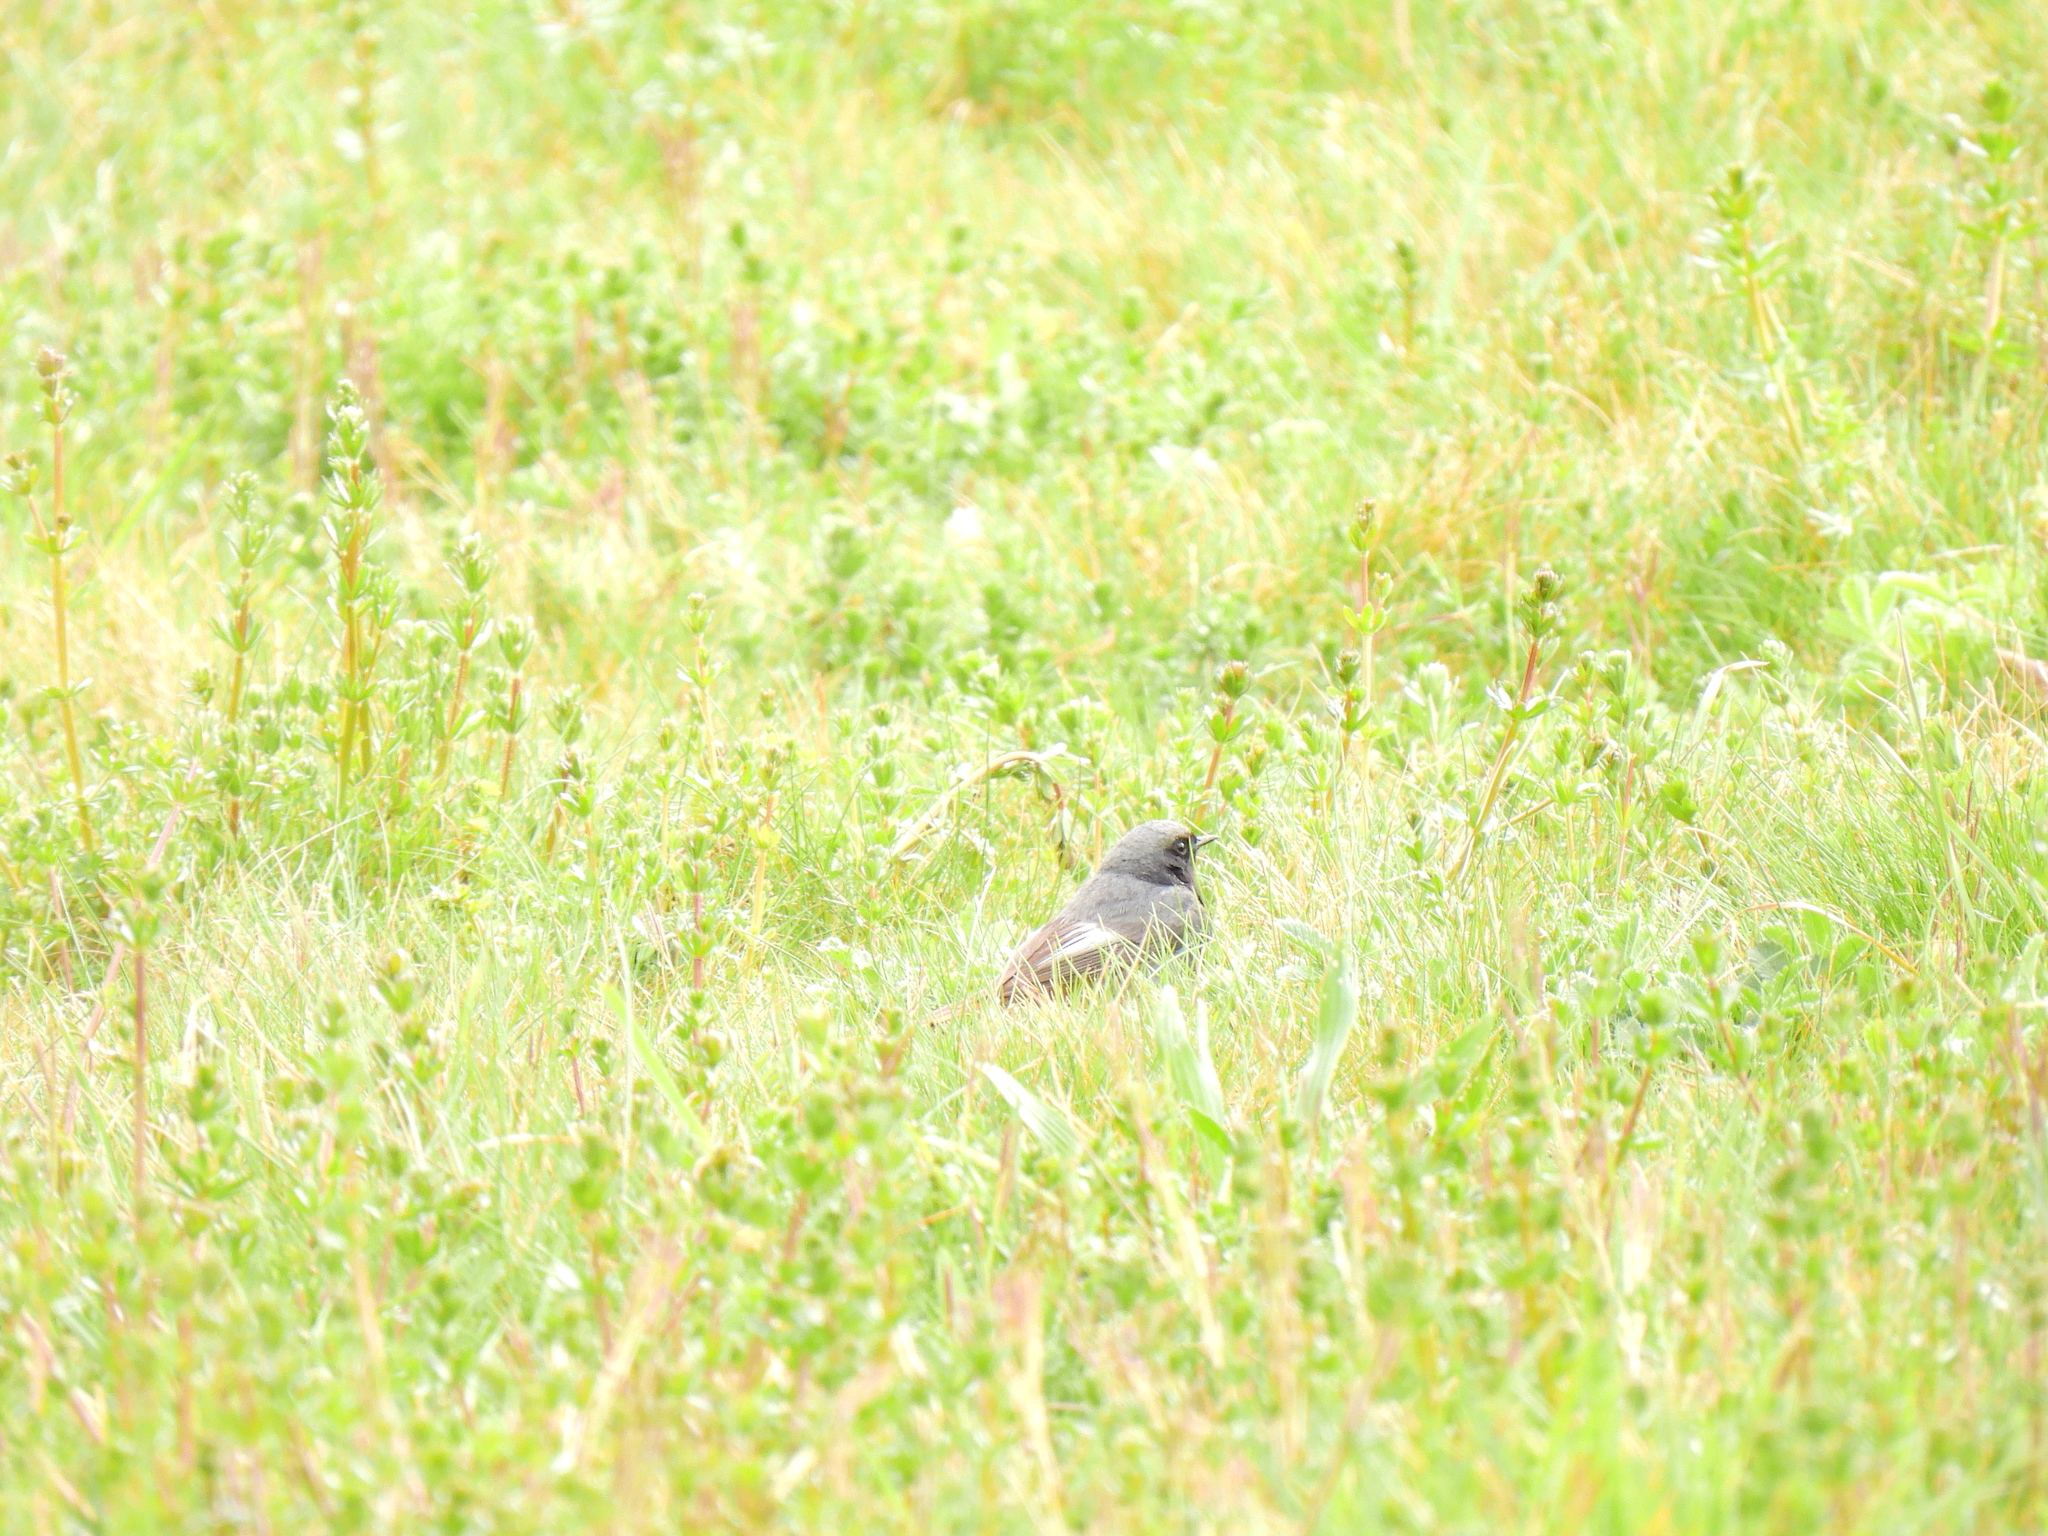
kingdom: Animalia
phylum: Chordata
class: Aves
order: Passeriformes
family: Muscicapidae
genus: Phoenicurus
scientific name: Phoenicurus ochruros
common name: Black redstart
